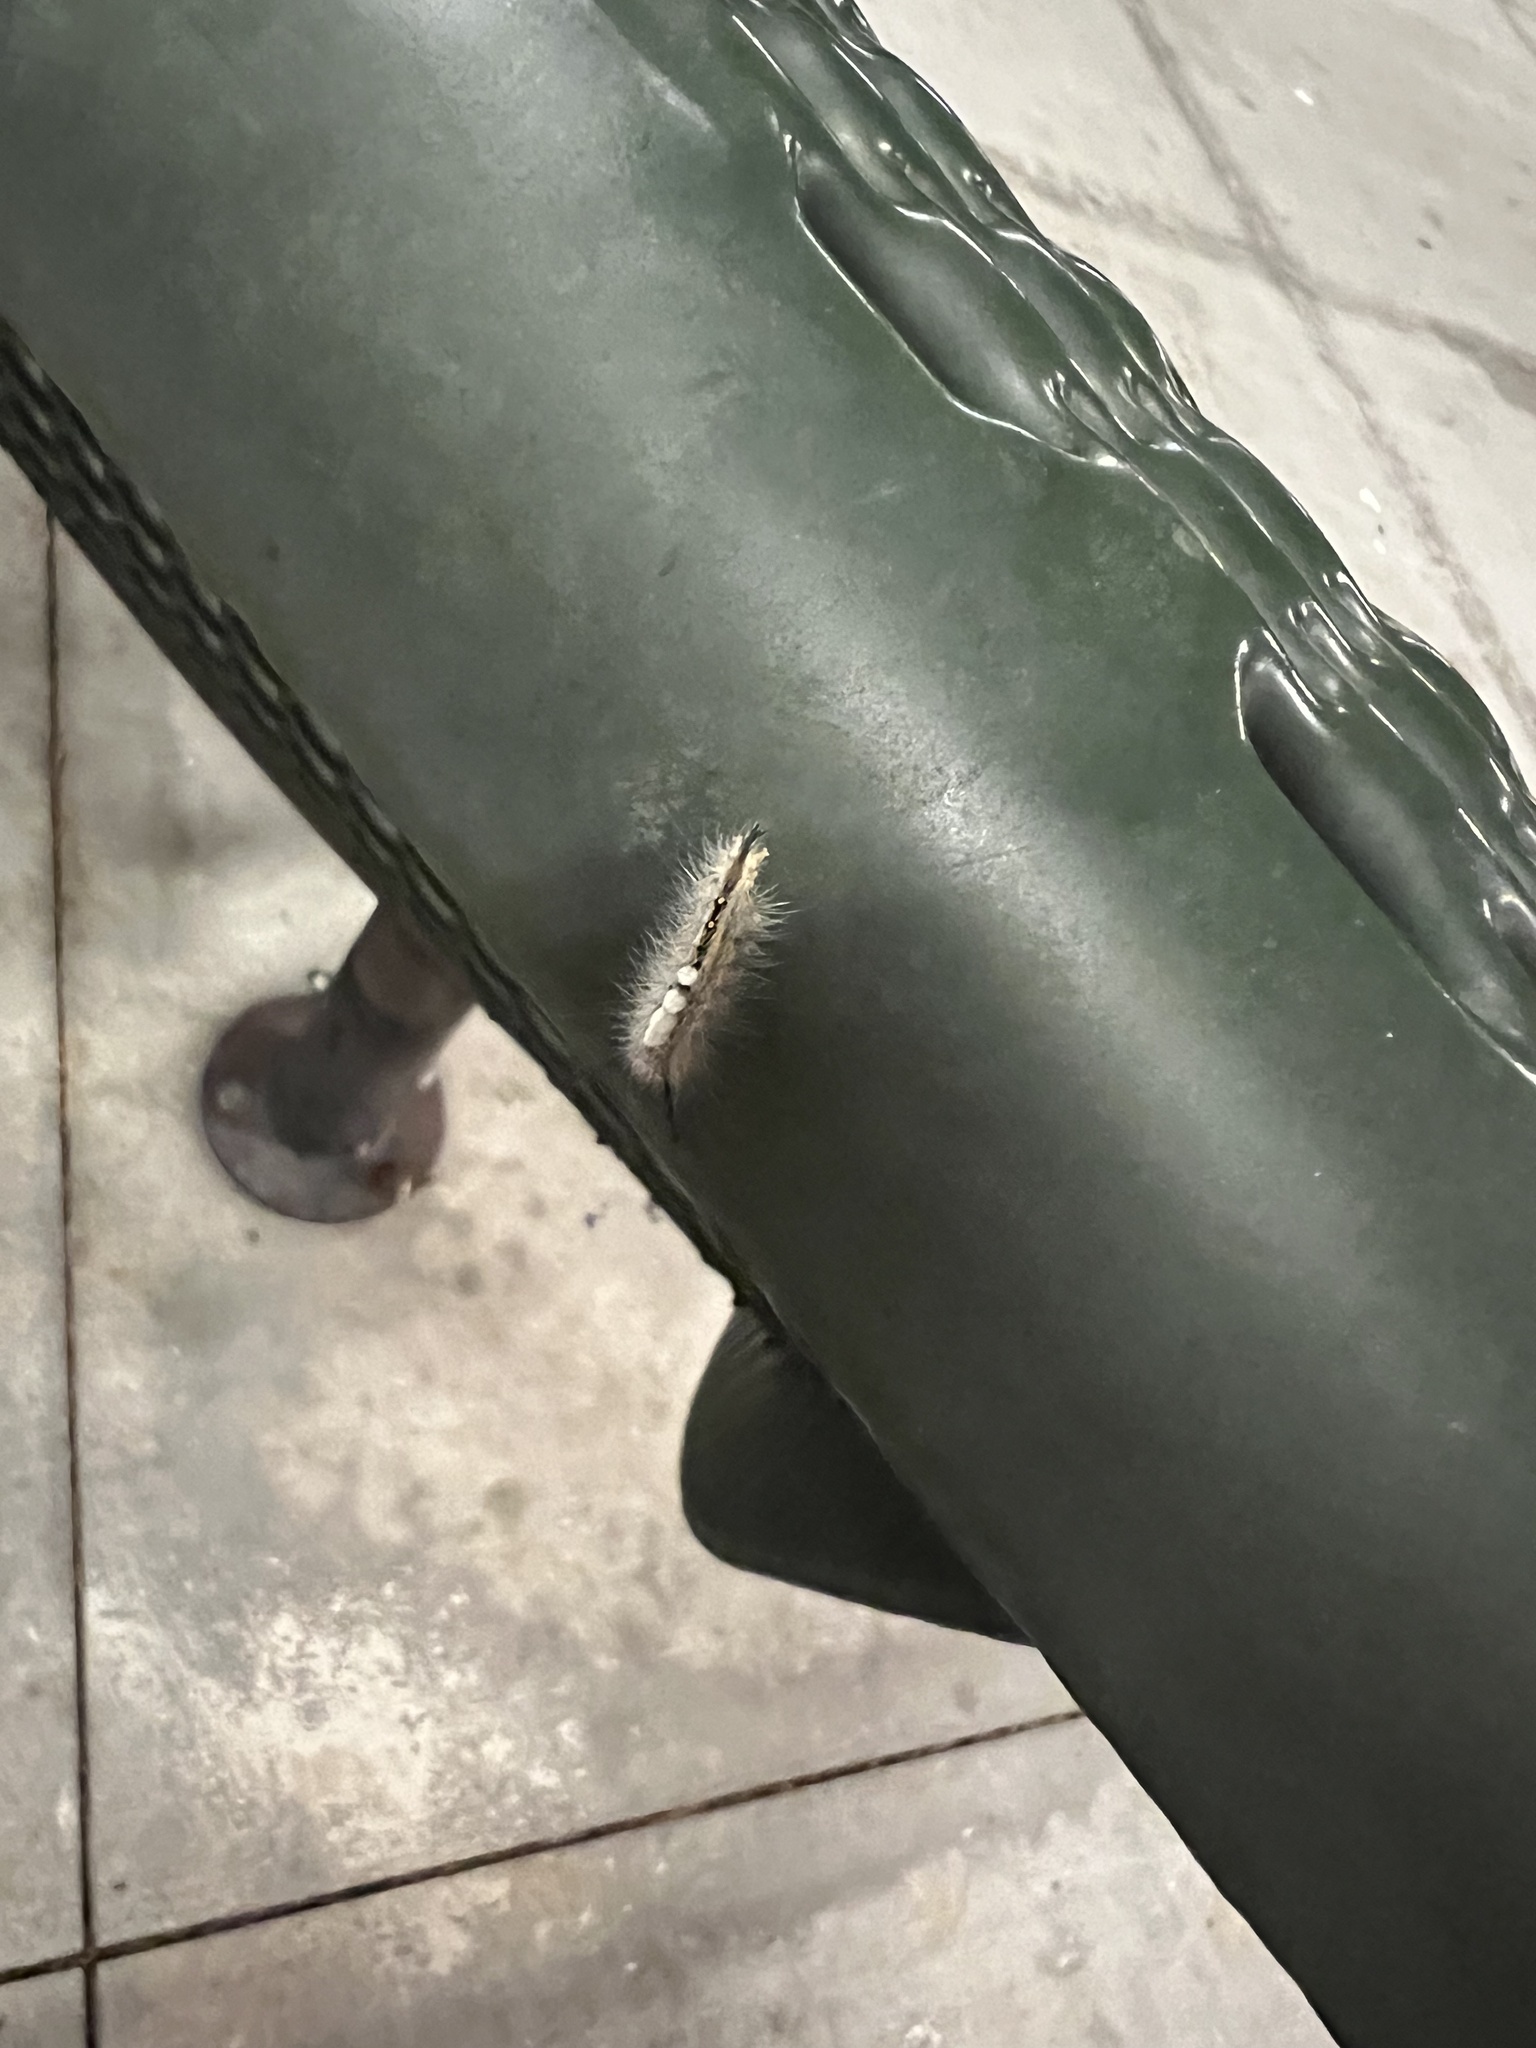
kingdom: Animalia
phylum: Arthropoda
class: Insecta
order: Lepidoptera
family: Erebidae
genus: Orgyia
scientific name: Orgyia detrita
